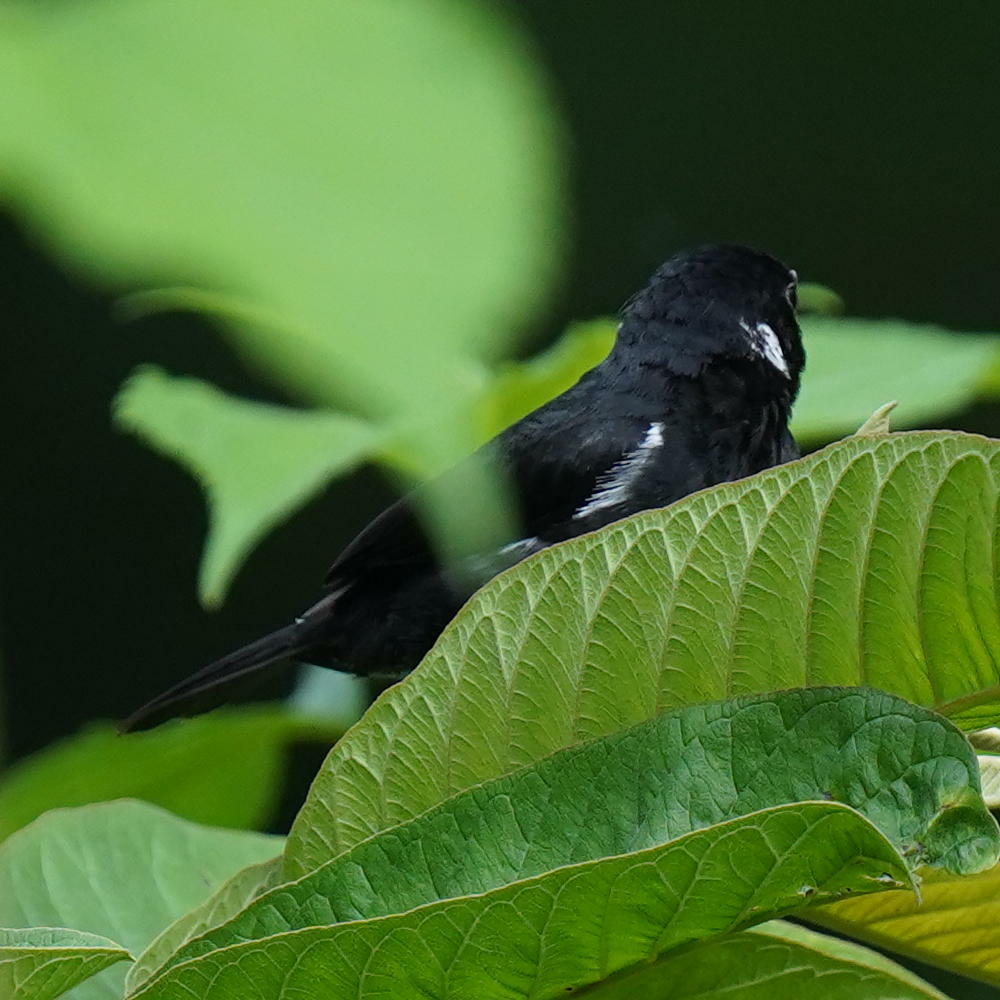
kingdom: Animalia
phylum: Chordata
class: Aves
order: Passeriformes
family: Thraupidae
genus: Sporophila
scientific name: Sporophila corvina
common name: Variable seedeater
